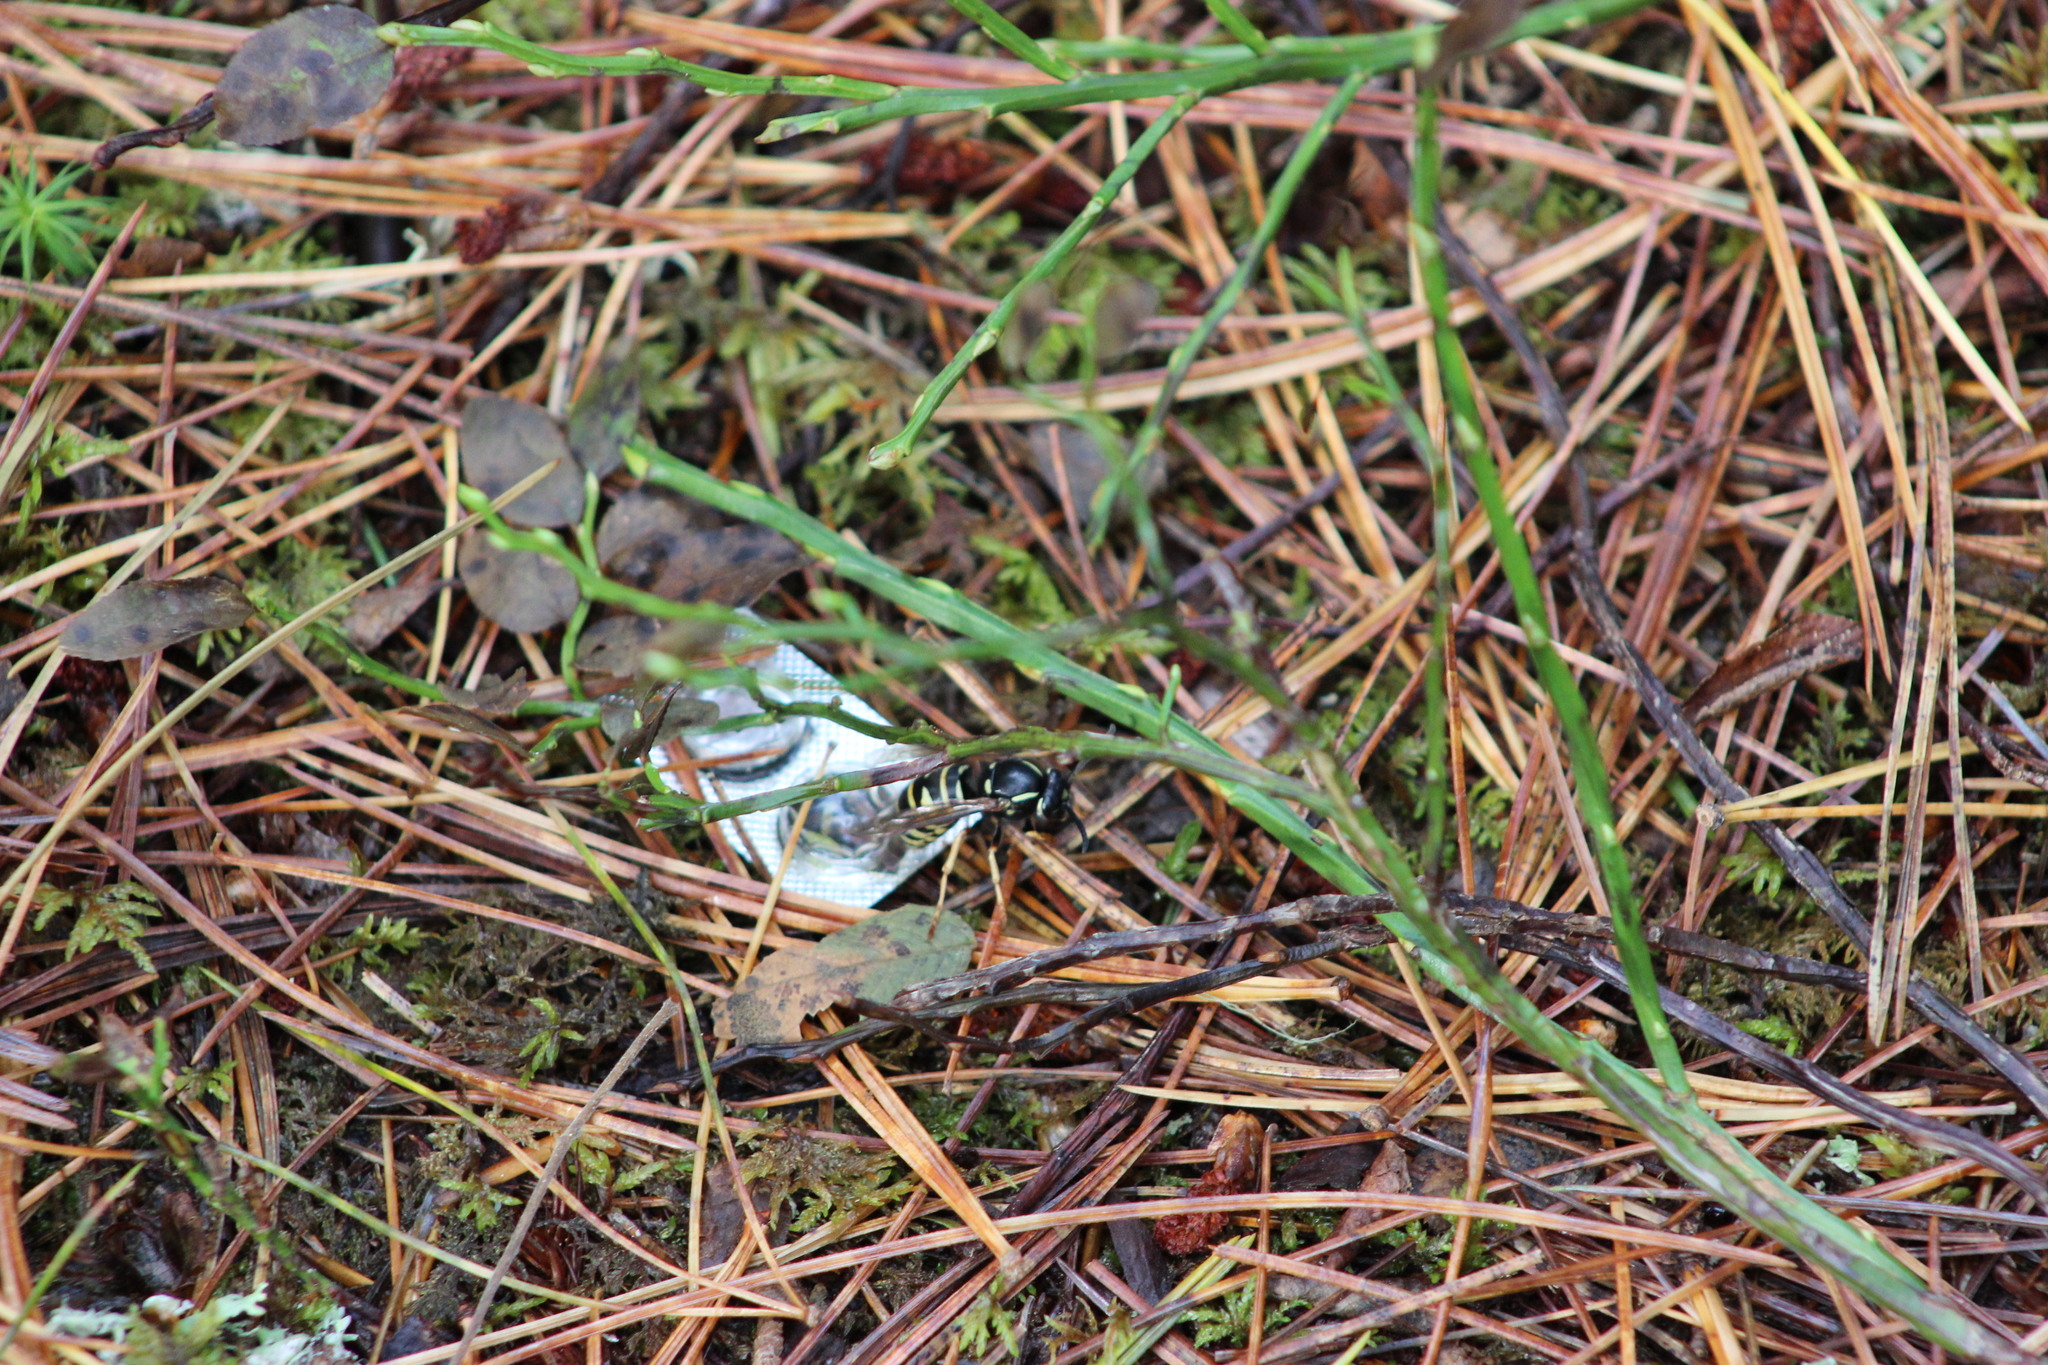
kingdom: Animalia
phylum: Arthropoda
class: Insecta
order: Hymenoptera
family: Vespidae
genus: Vespula
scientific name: Vespula austriaca
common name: Cuckoo wasp
